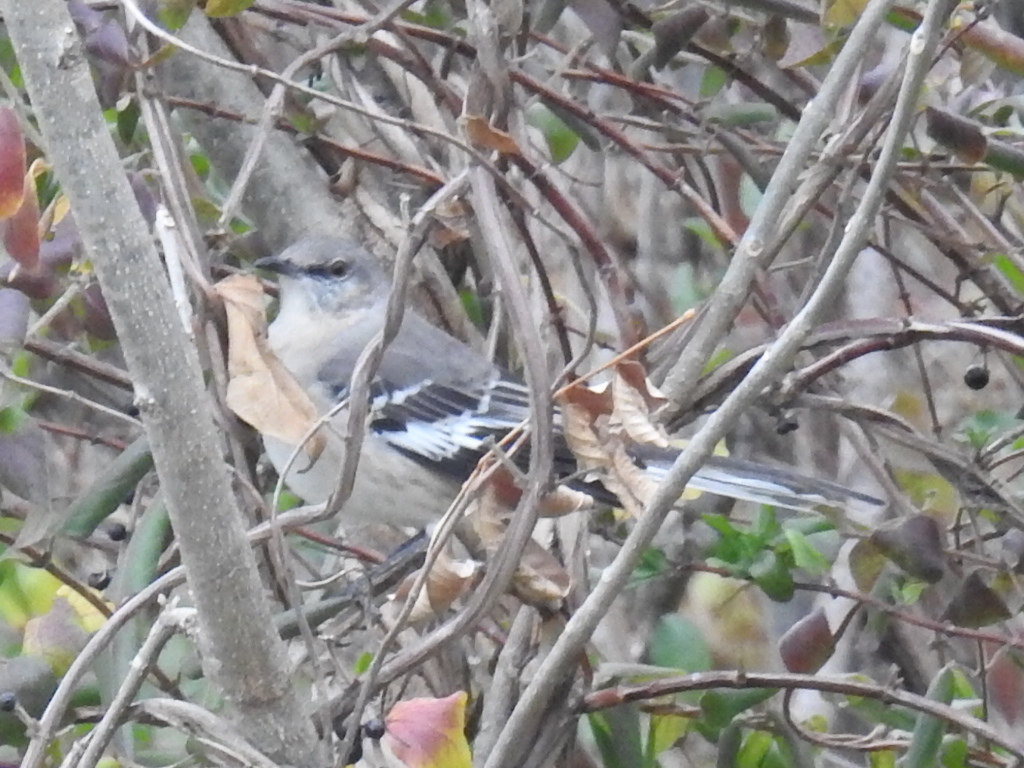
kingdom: Animalia
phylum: Chordata
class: Aves
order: Passeriformes
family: Mimidae
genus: Mimus
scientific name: Mimus polyglottos
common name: Northern mockingbird
